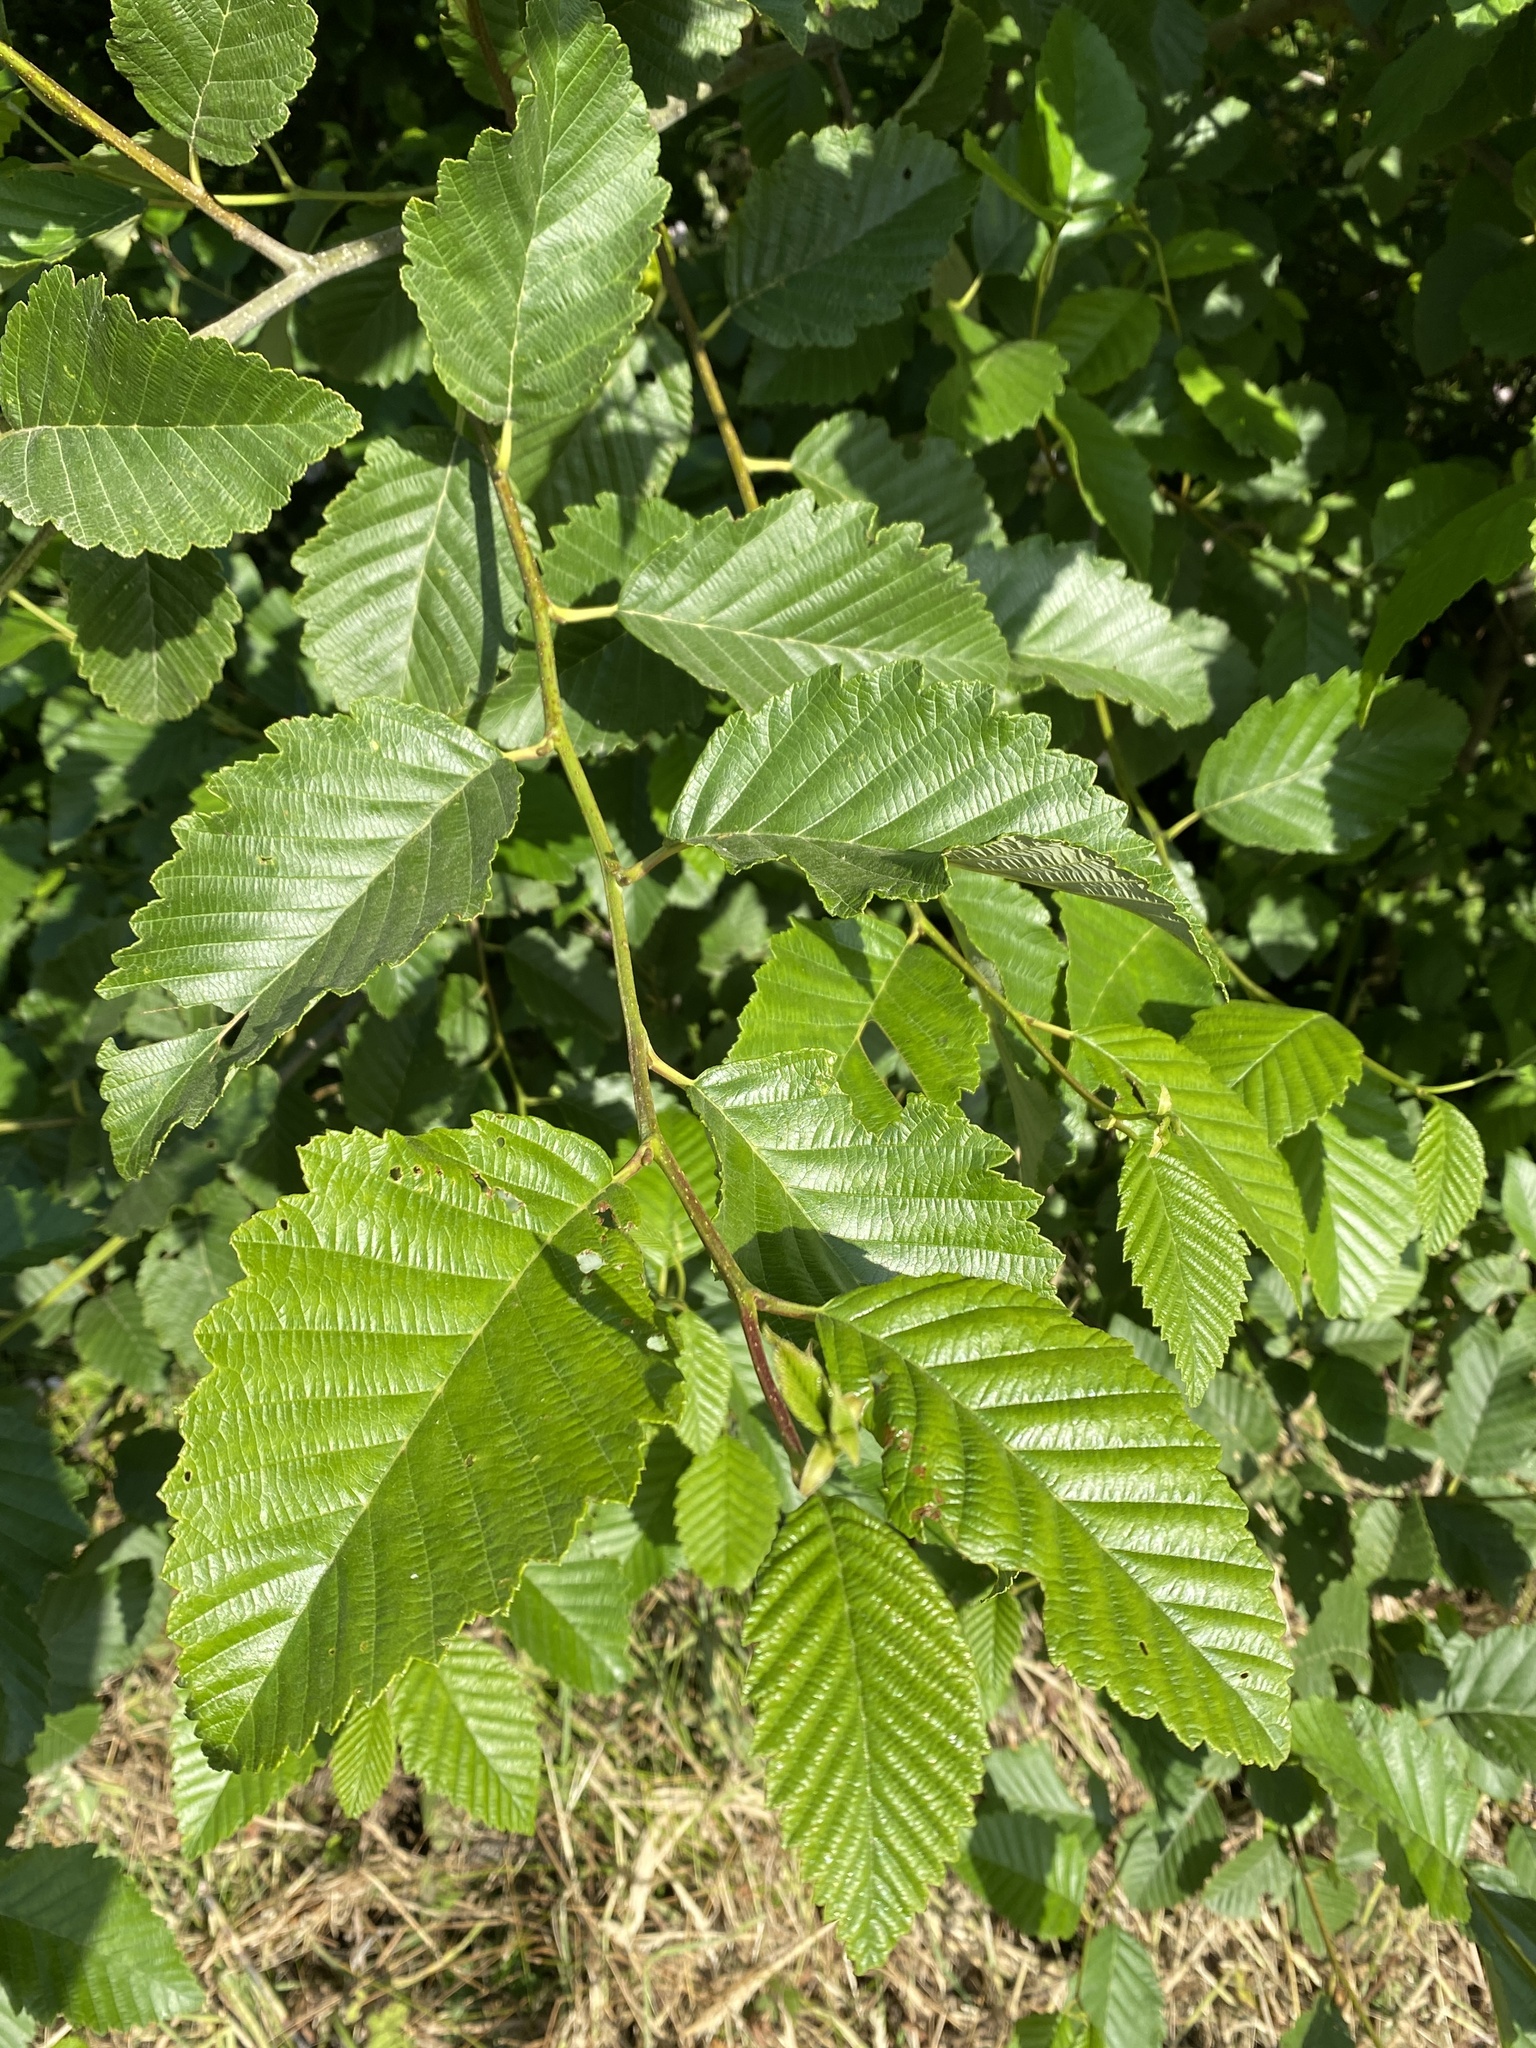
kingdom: Plantae
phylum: Tracheophyta
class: Magnoliopsida
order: Fagales
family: Betulaceae
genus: Alnus
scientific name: Alnus rubra
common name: Red alder
